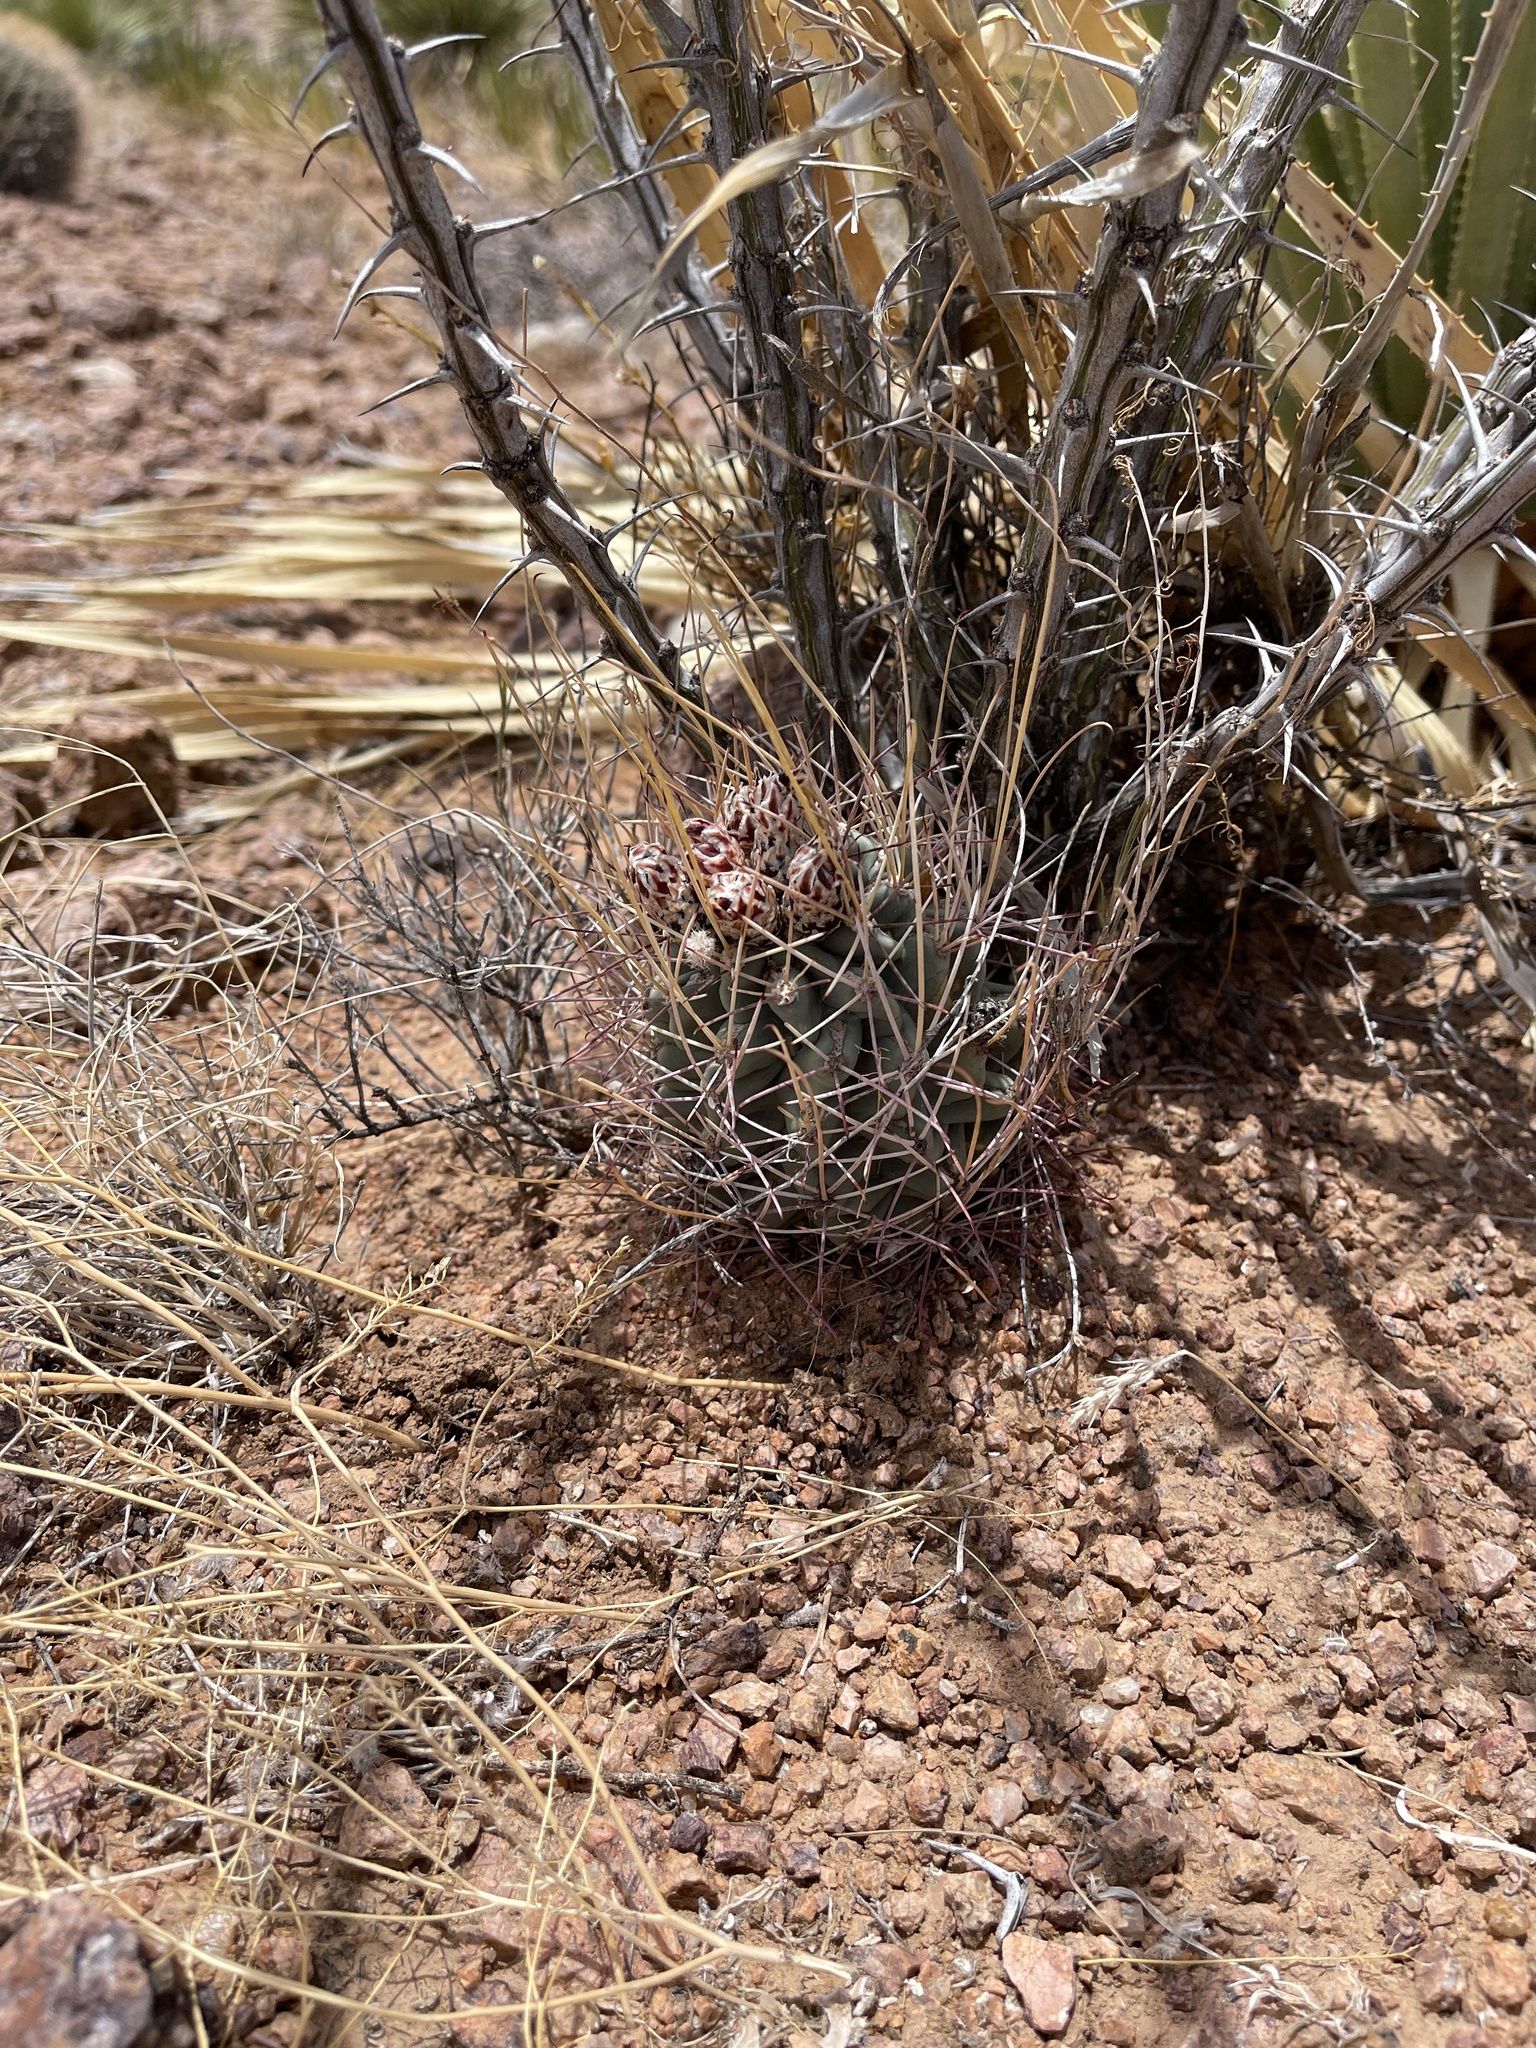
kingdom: Plantae
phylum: Tracheophyta
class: Magnoliopsida
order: Caryophyllales
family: Cactaceae
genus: Ferocactus
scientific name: Ferocactus uncinatus
